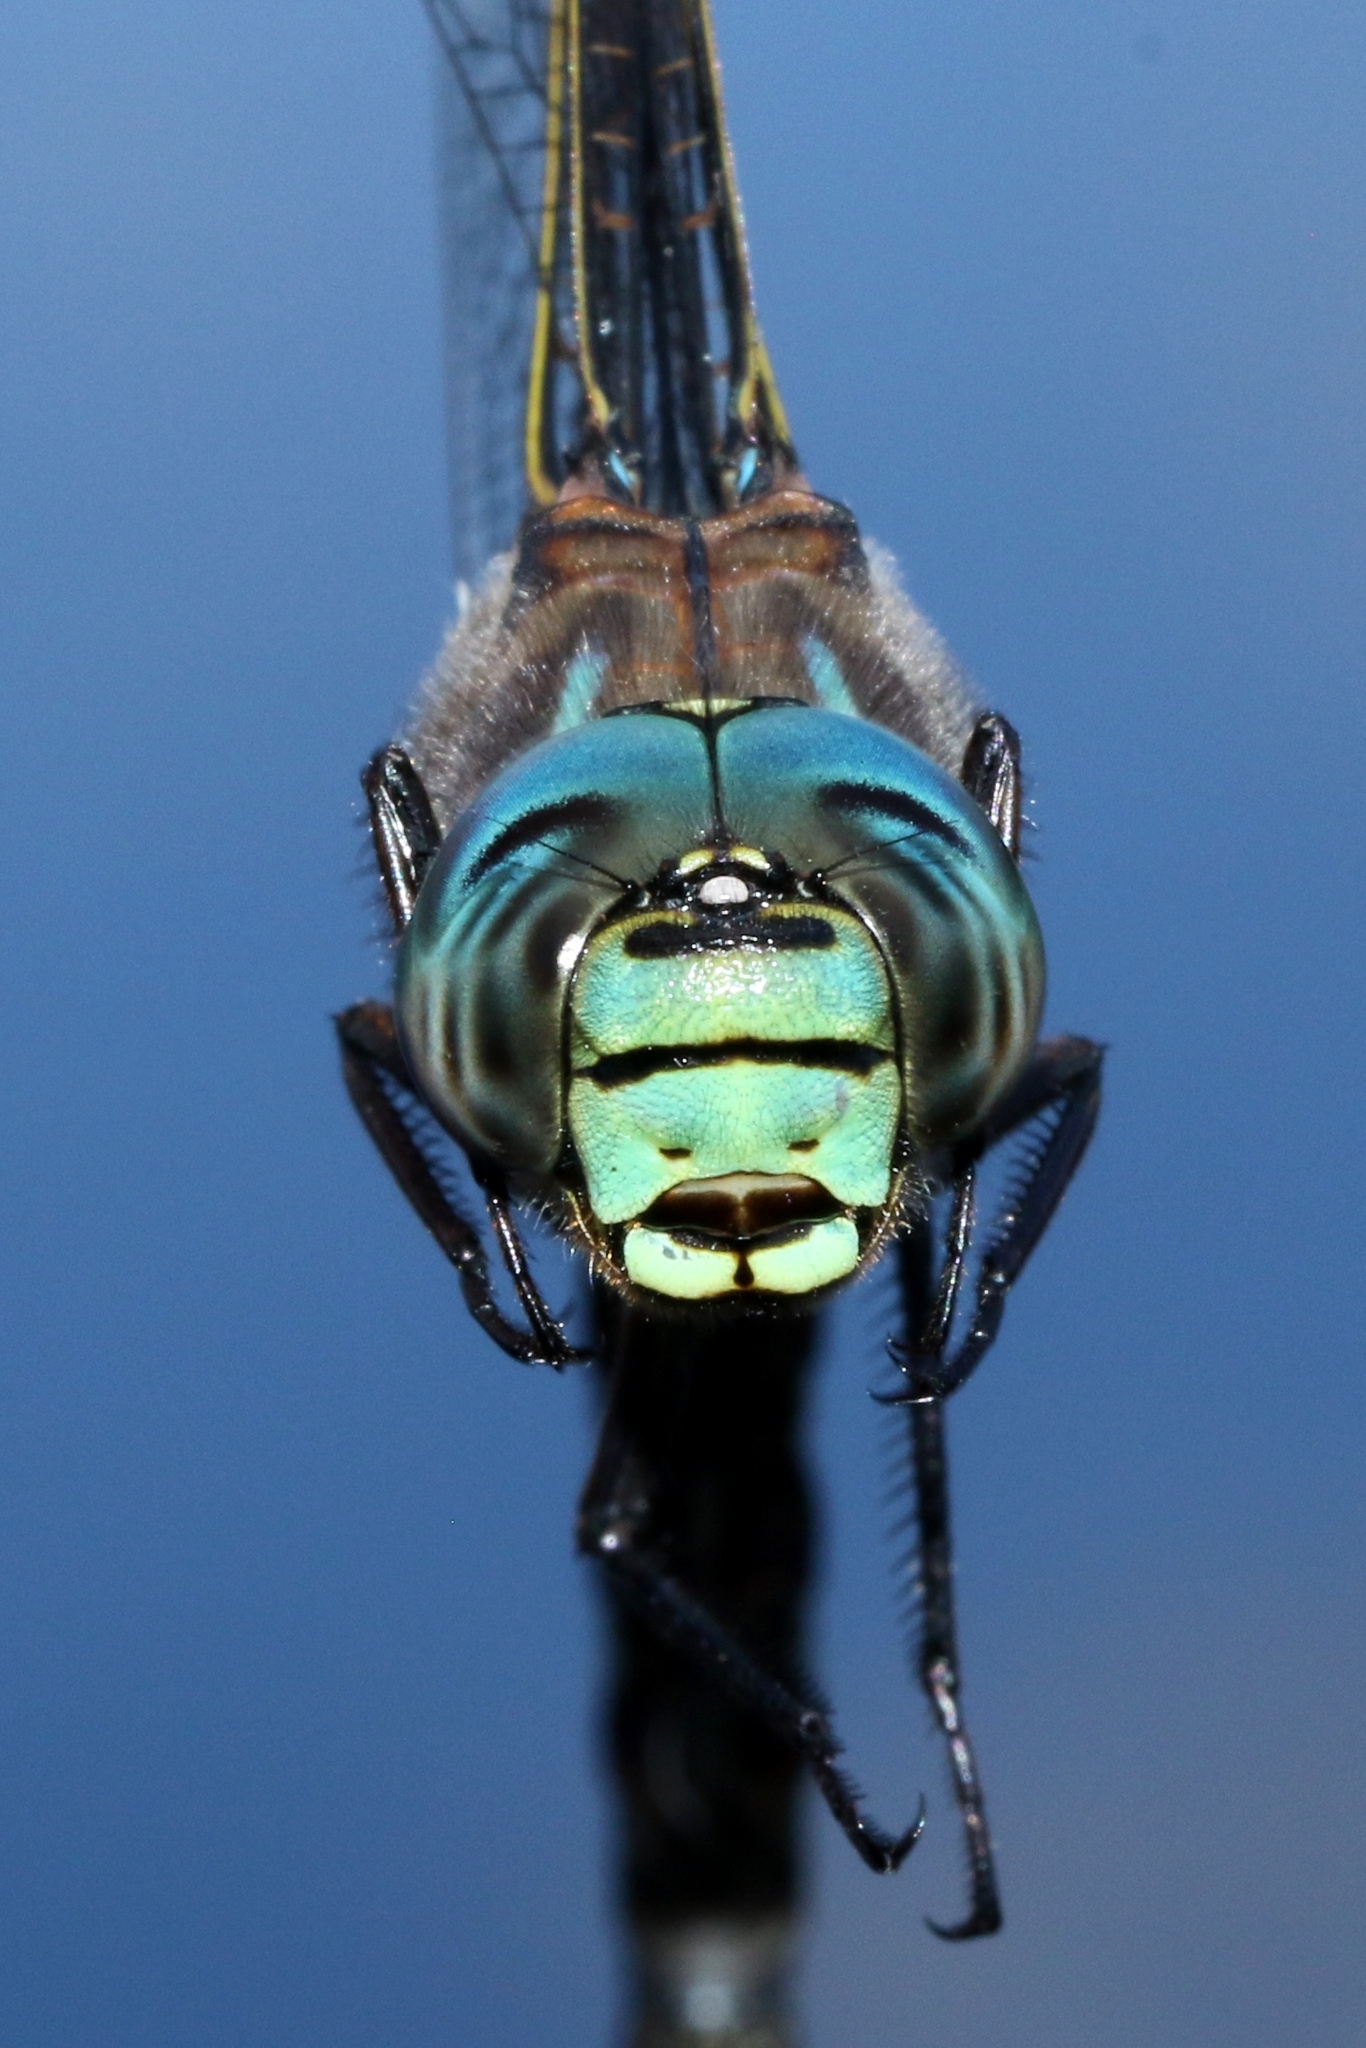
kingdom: Animalia
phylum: Arthropoda
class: Insecta
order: Odonata
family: Aeshnidae
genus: Aeshna
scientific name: Aeshna eremita
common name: Lake darner
